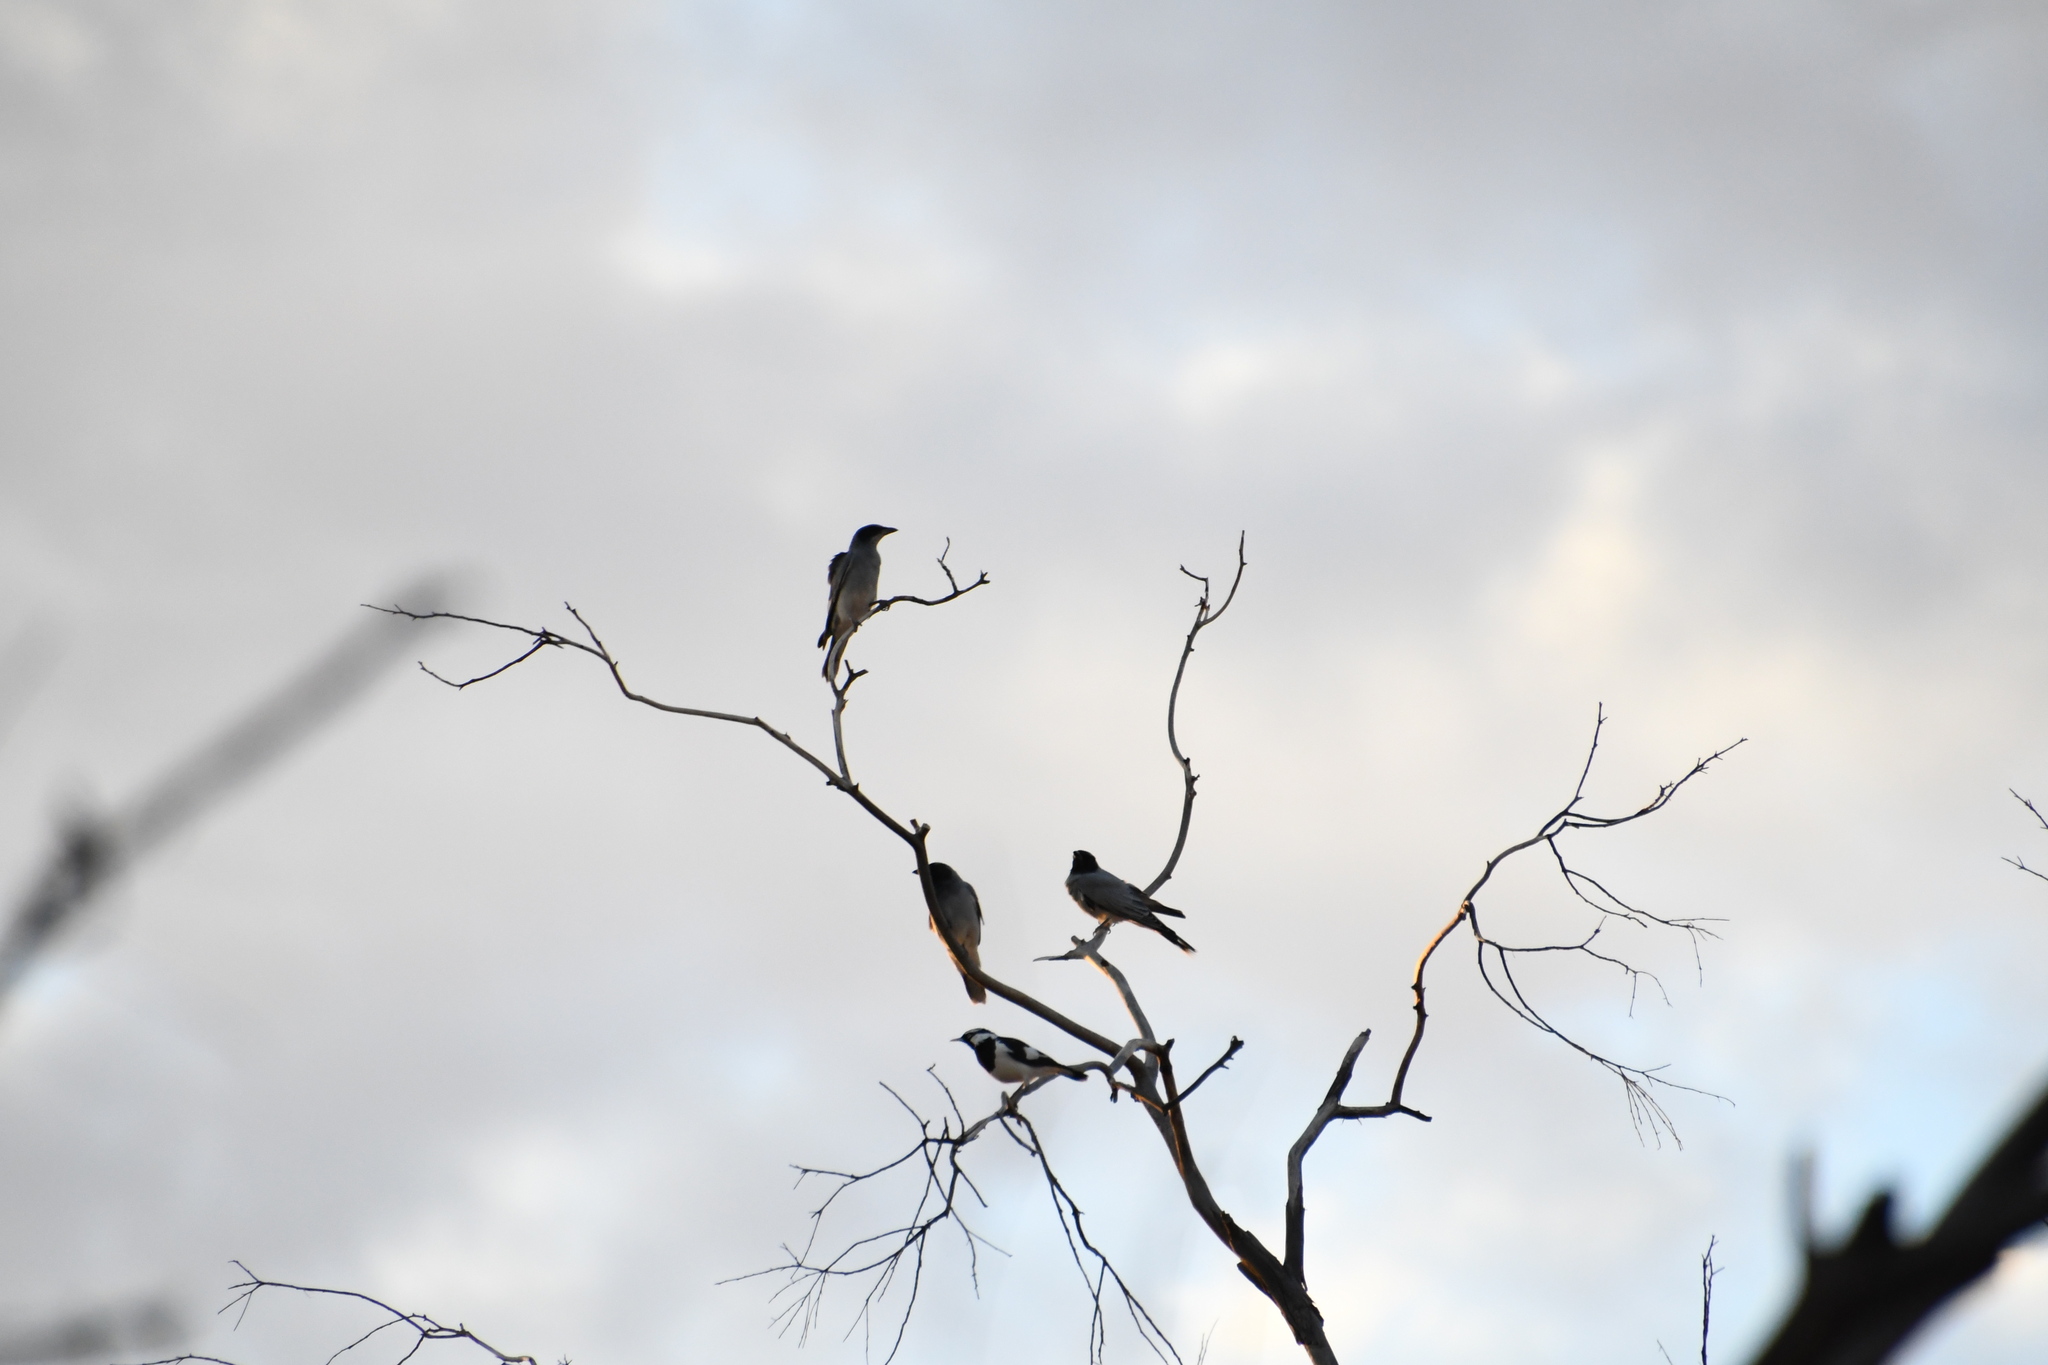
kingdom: Animalia
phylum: Chordata
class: Aves
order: Passeriformes
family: Campephagidae
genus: Coracina
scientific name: Coracina novaehollandiae
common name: Black-faced cuckooshrike
